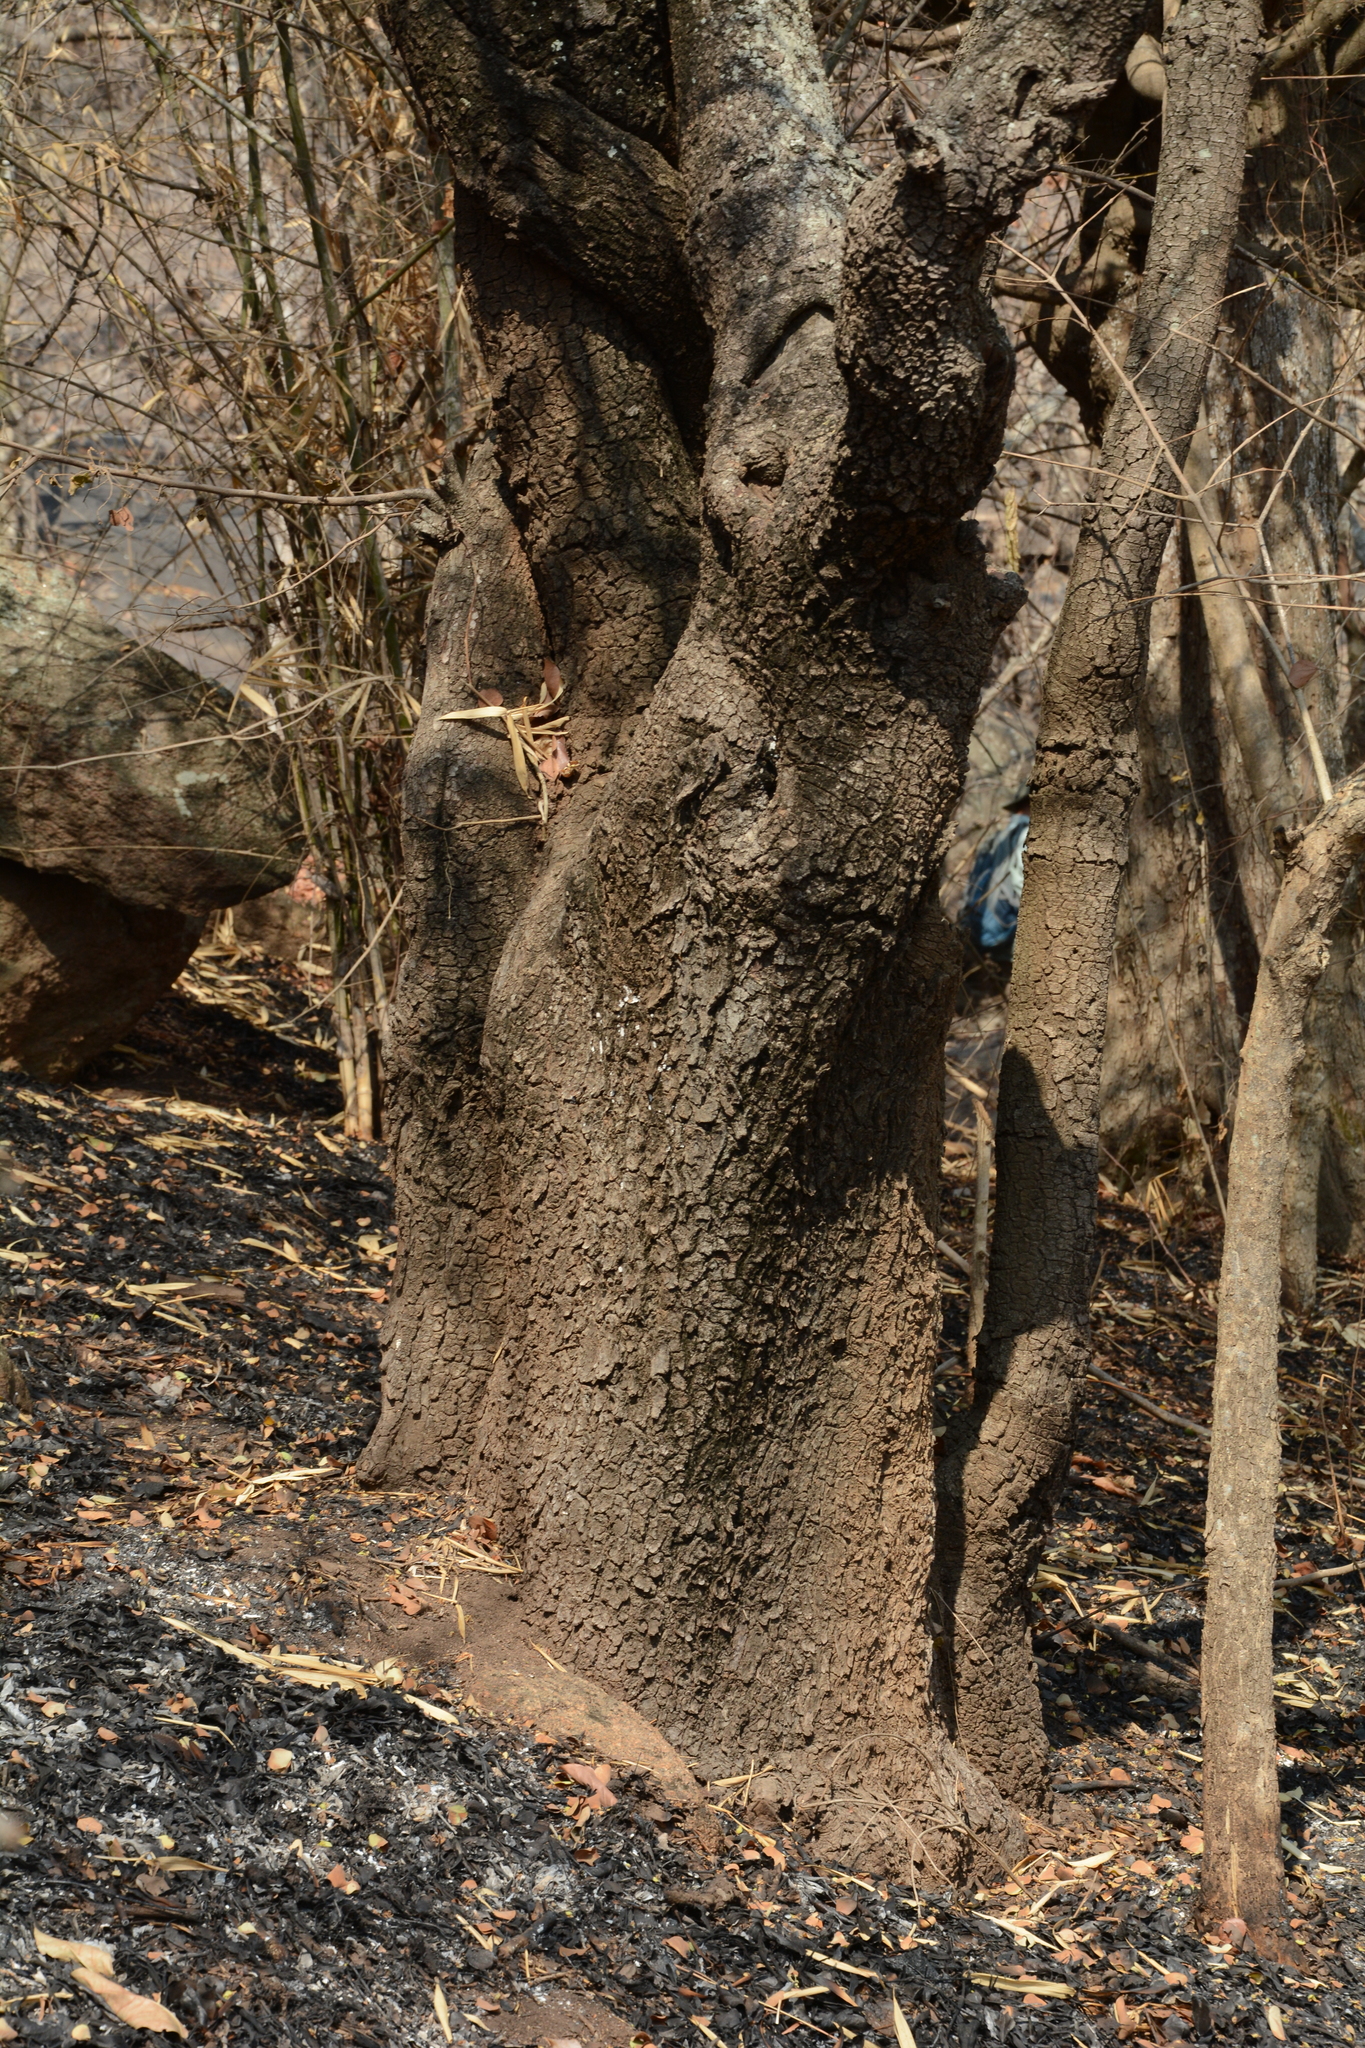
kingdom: Plantae
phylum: Tracheophyta
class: Magnoliopsida
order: Fabales
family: Fabaceae
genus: Bauhinia
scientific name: Bauhinia racemosa
